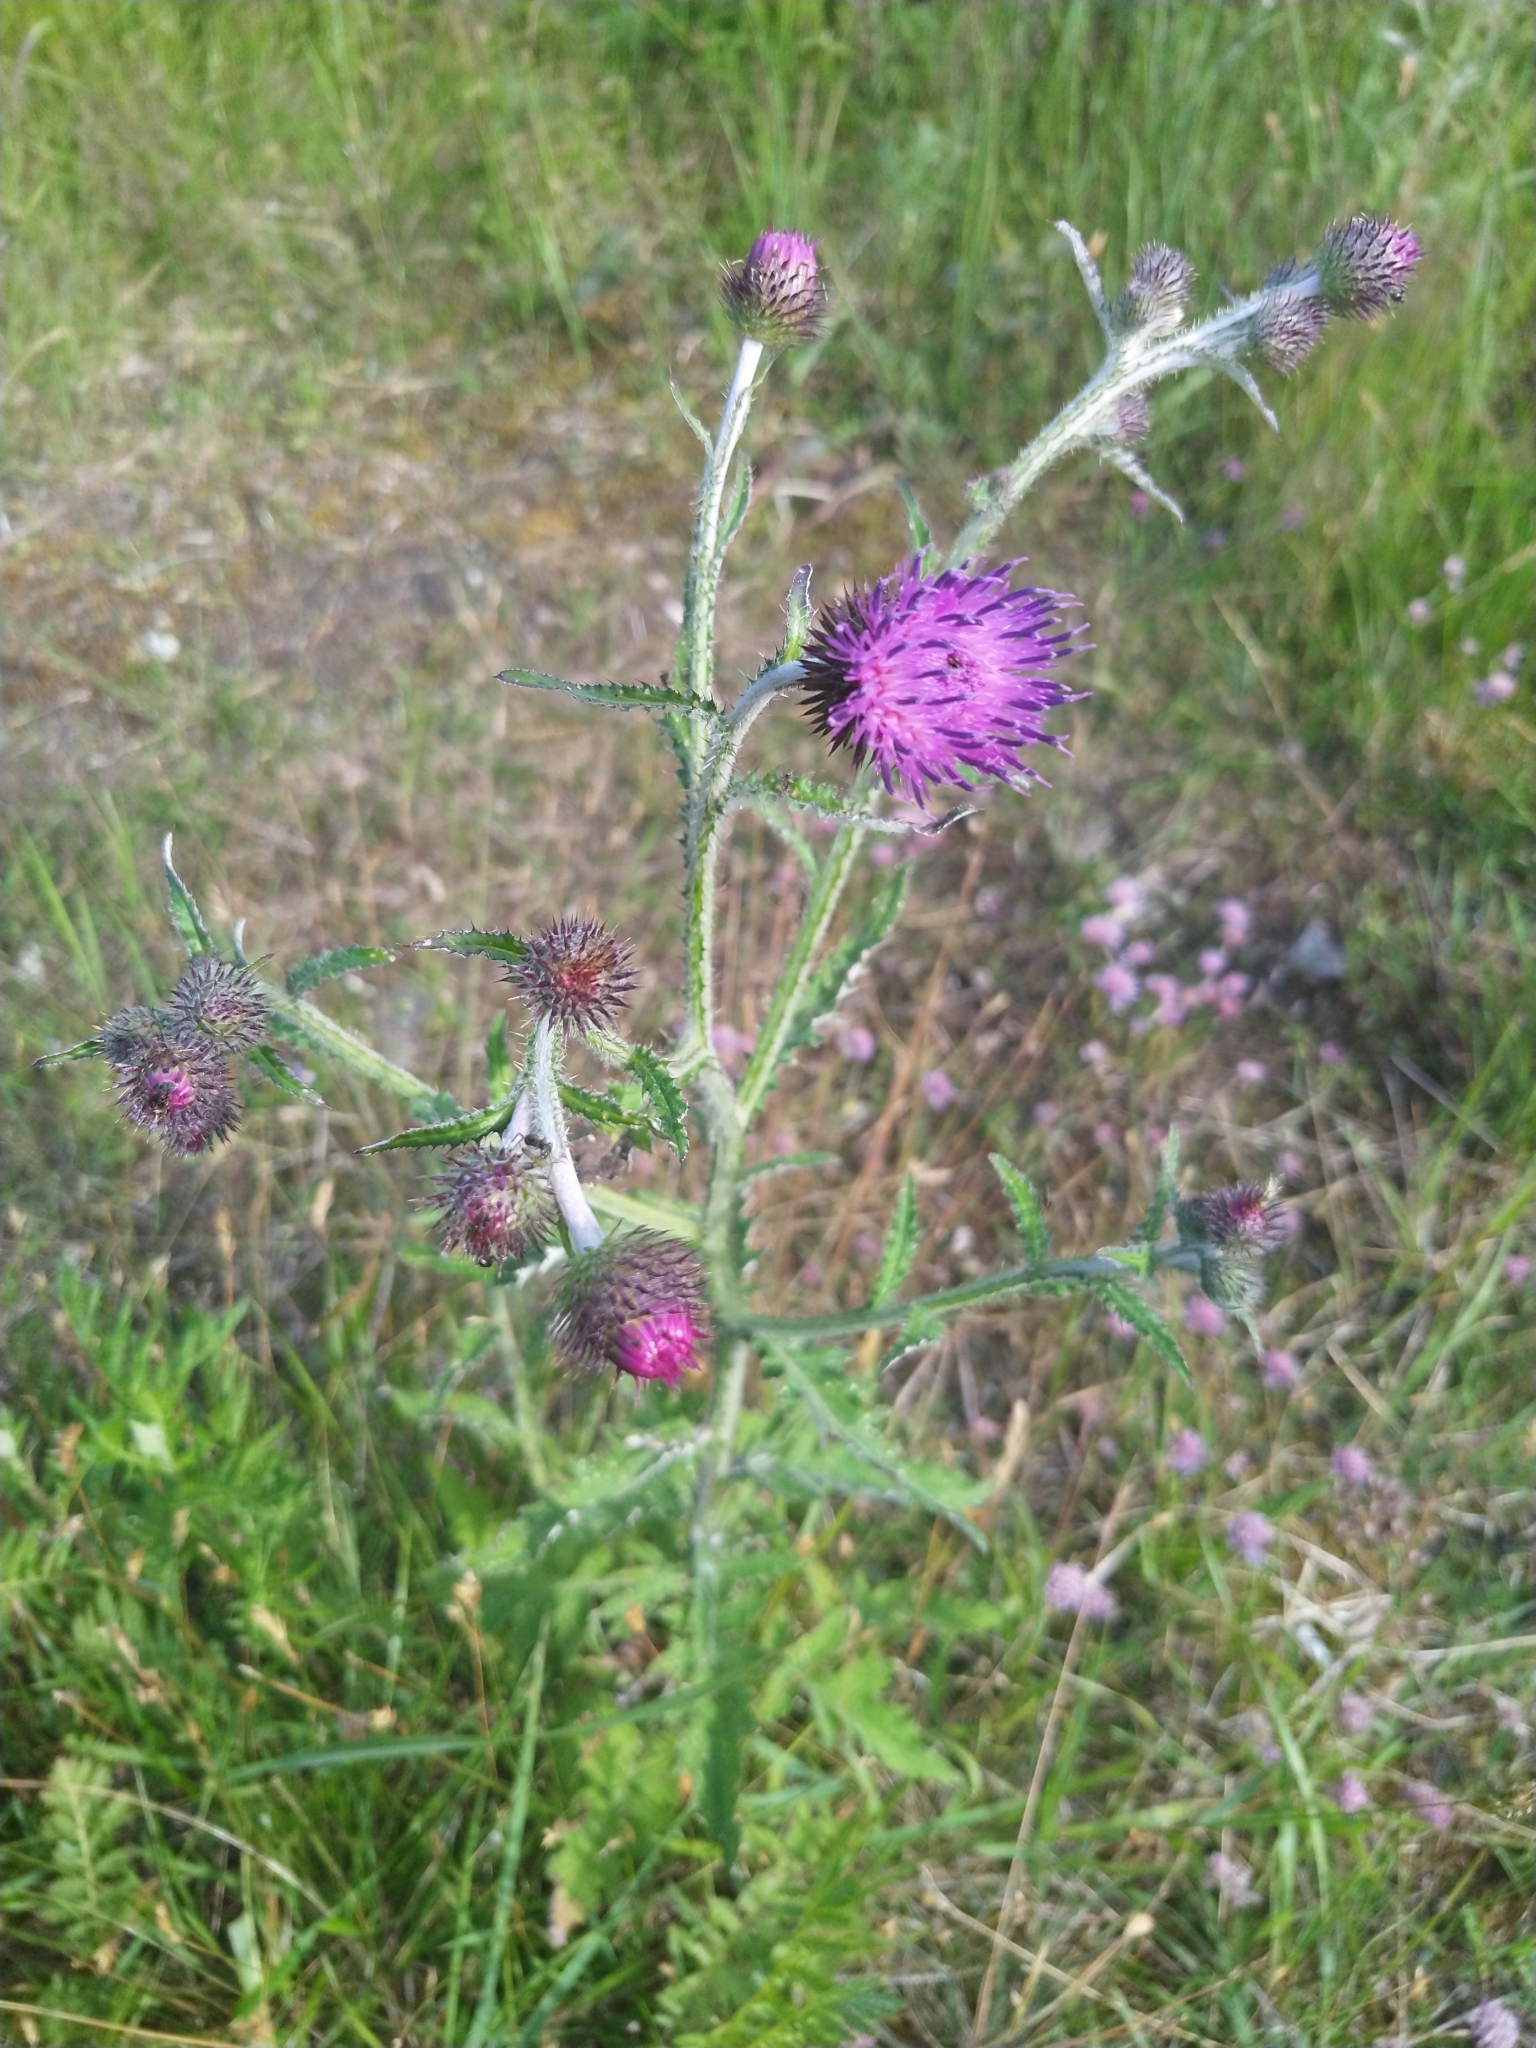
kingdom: Plantae
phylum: Tracheophyta
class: Magnoliopsida
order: Asterales
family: Asteraceae
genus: Carduus
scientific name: Carduus crispus
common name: Welted thistle
